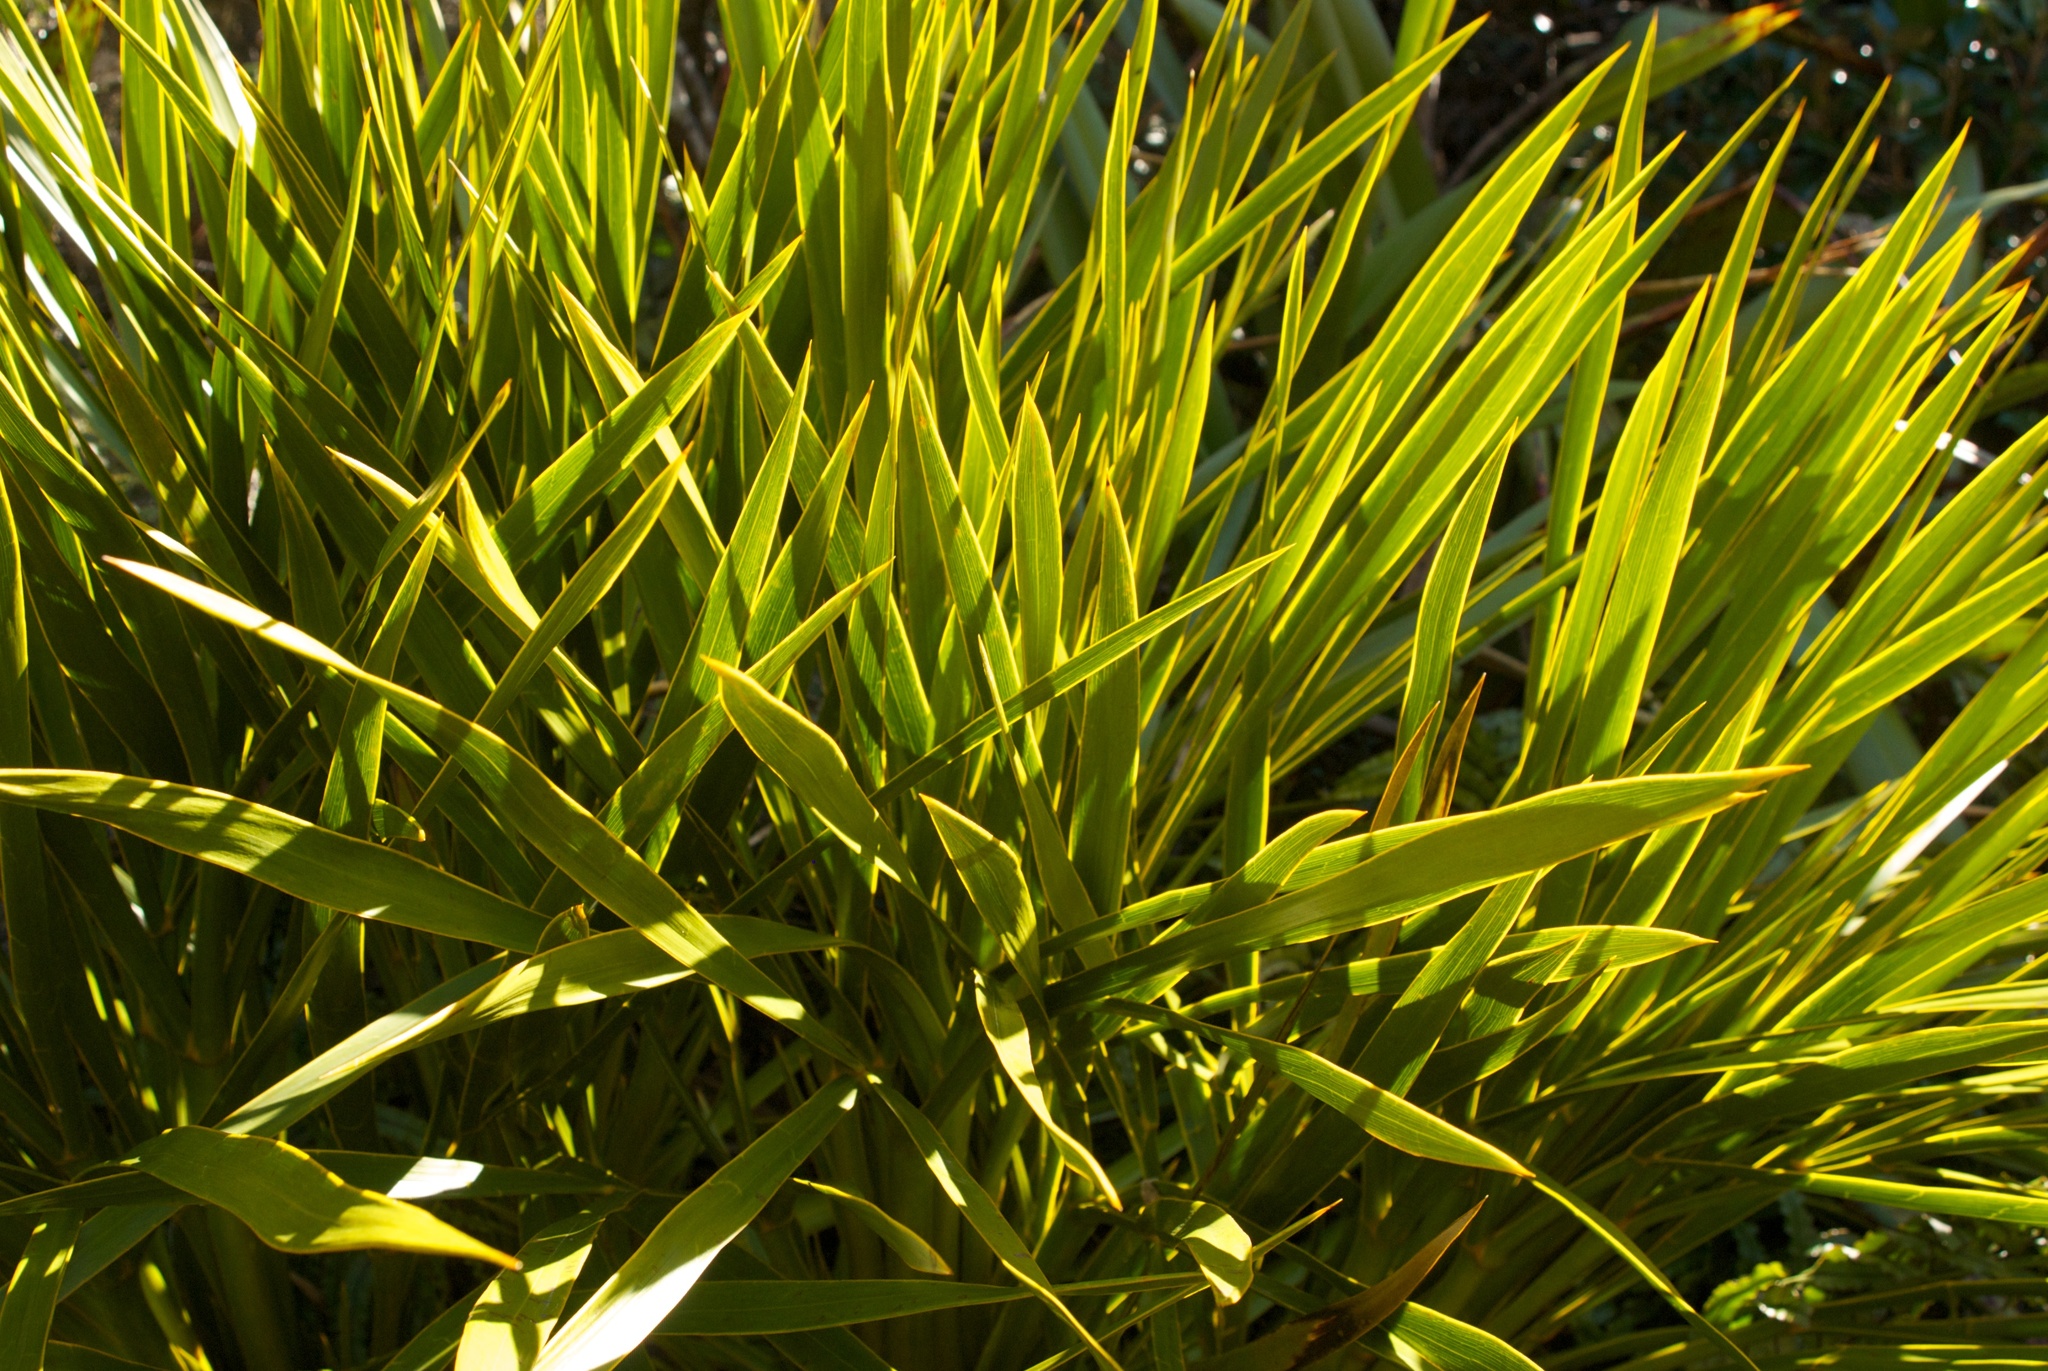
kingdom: Plantae
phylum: Tracheophyta
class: Magnoliopsida
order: Apiales
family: Apiaceae
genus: Aciphylla
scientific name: Aciphylla aurea
